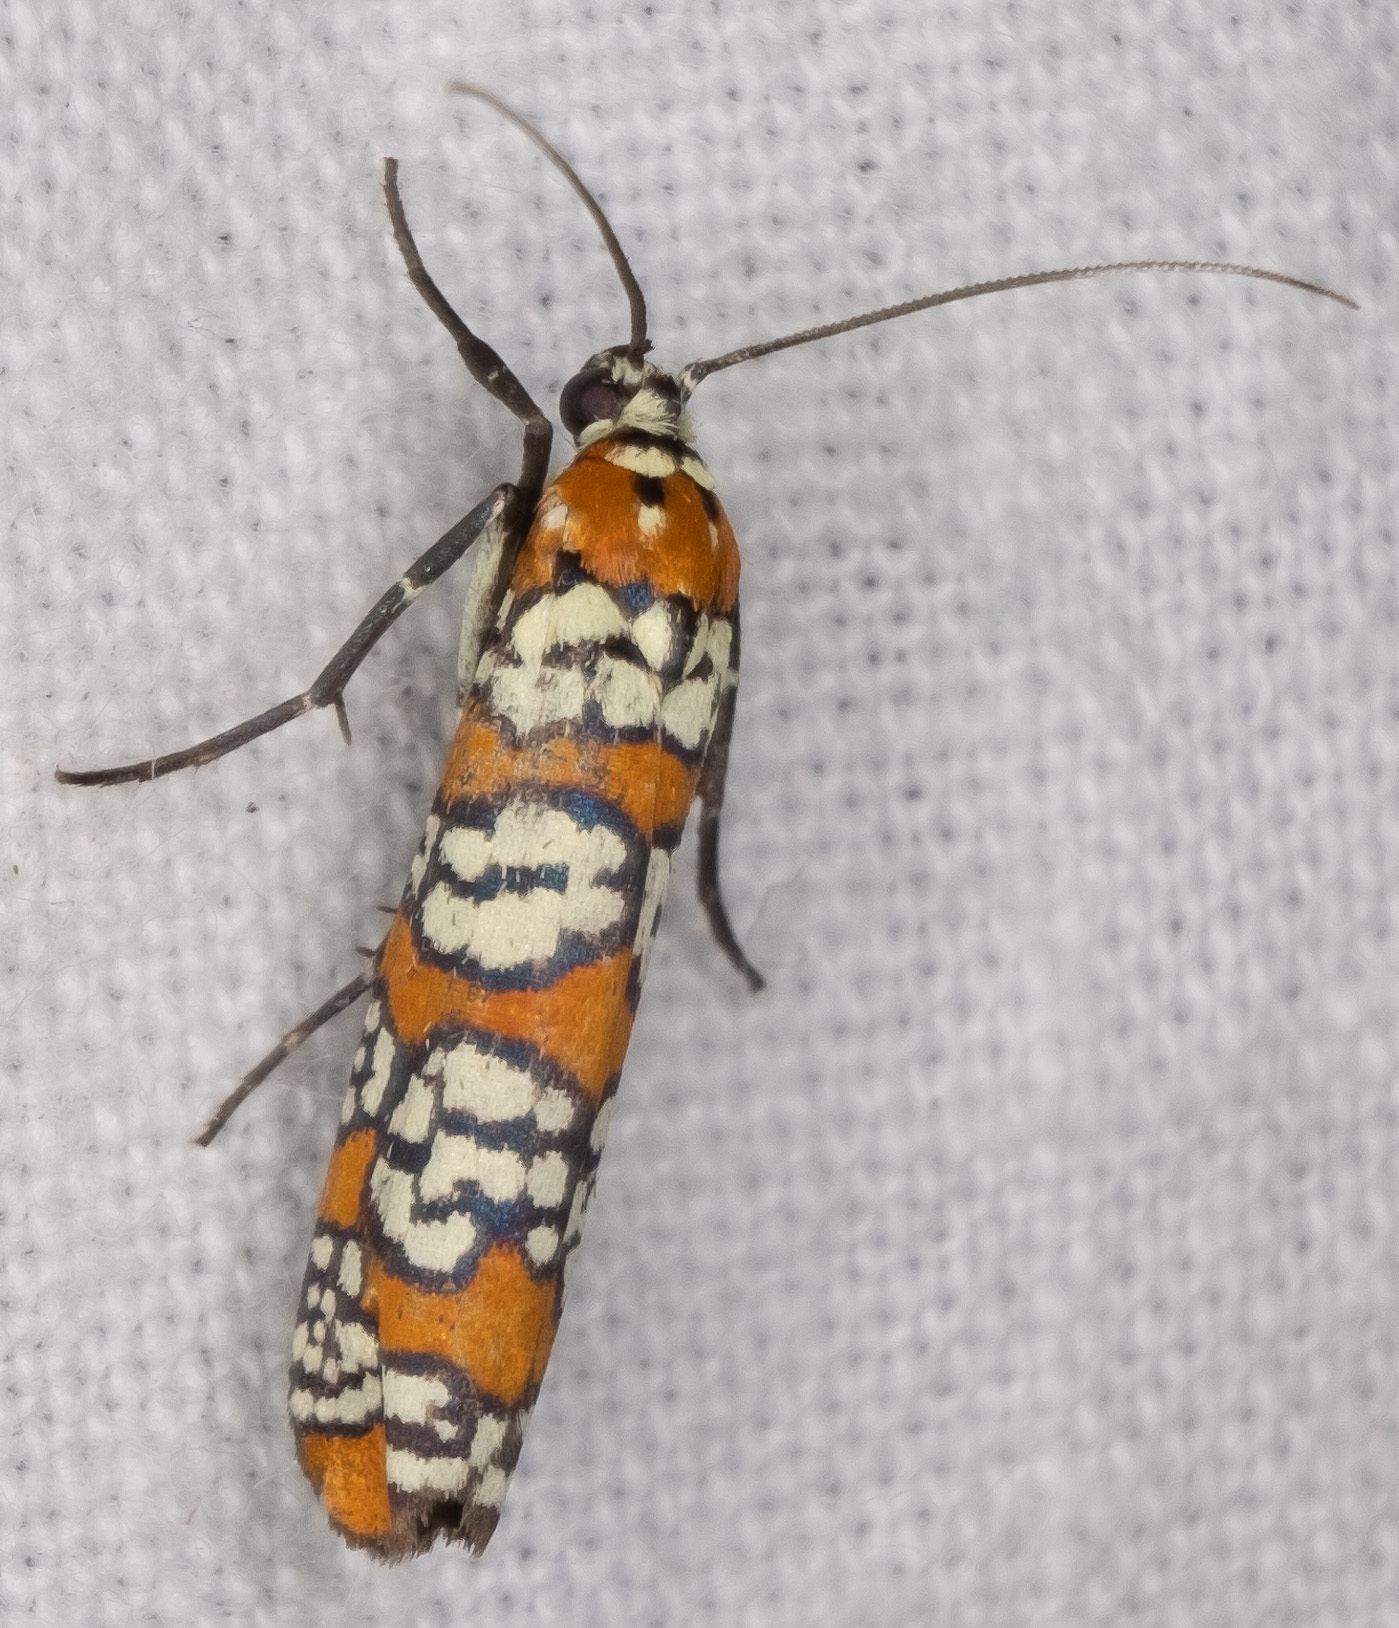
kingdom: Animalia
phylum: Arthropoda
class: Insecta
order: Lepidoptera
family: Attevidae
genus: Atteva
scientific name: Atteva punctella
